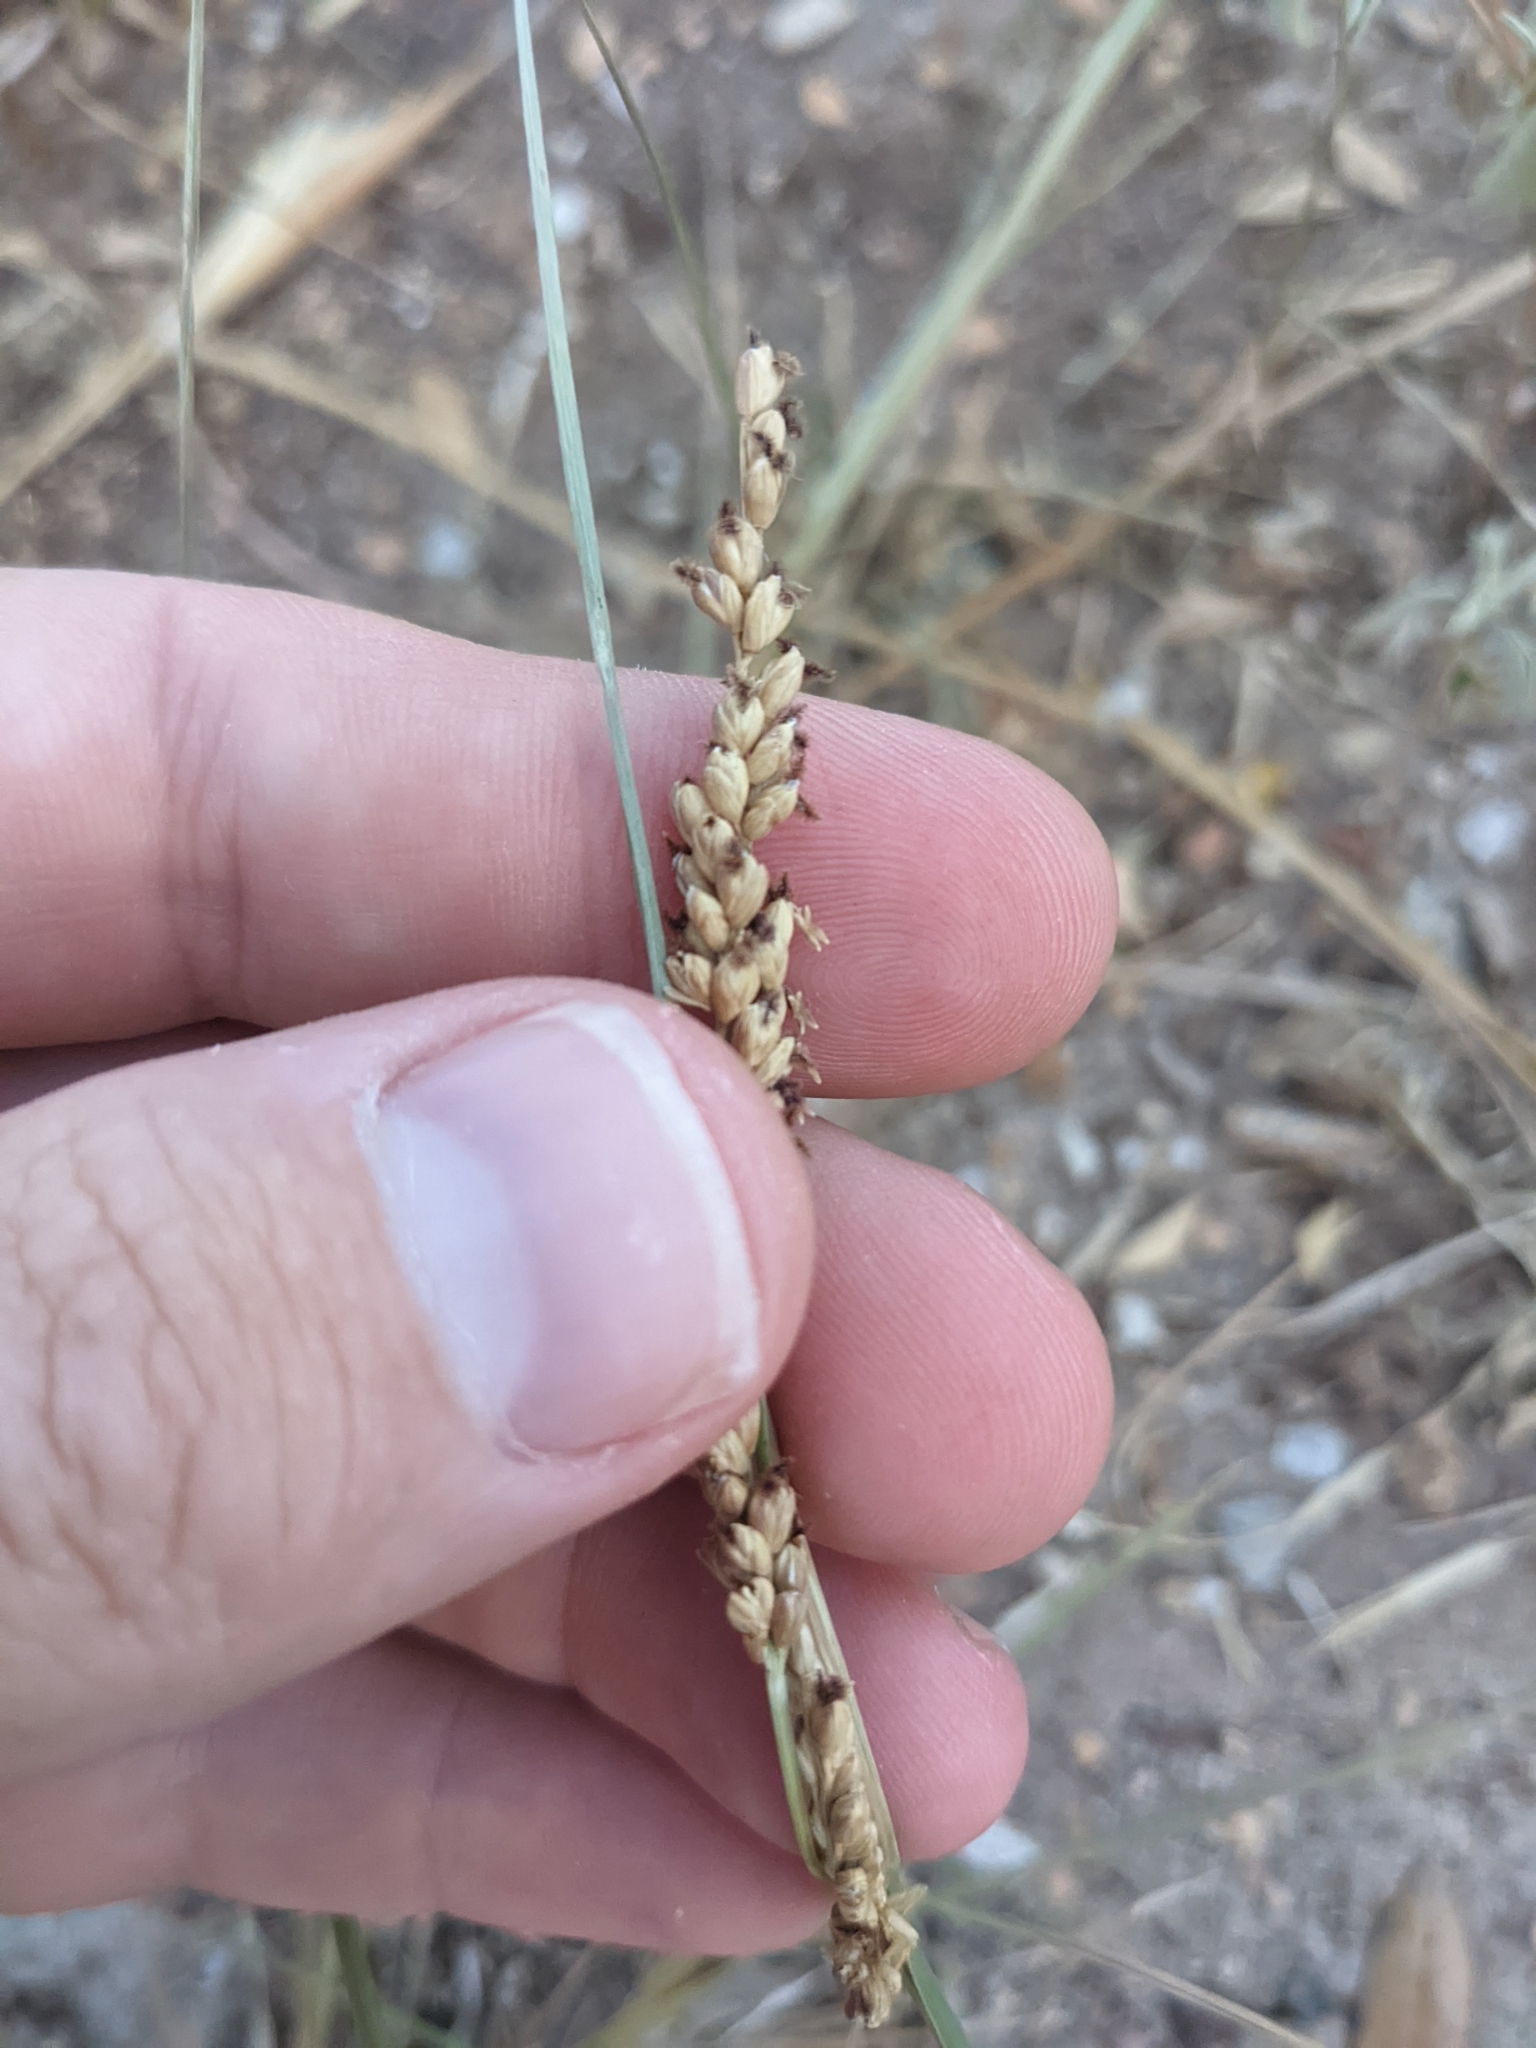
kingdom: Plantae
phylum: Tracheophyta
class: Liliopsida
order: Poales
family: Poaceae
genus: Hopia
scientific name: Hopia obtusa
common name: Vine-mesquite
